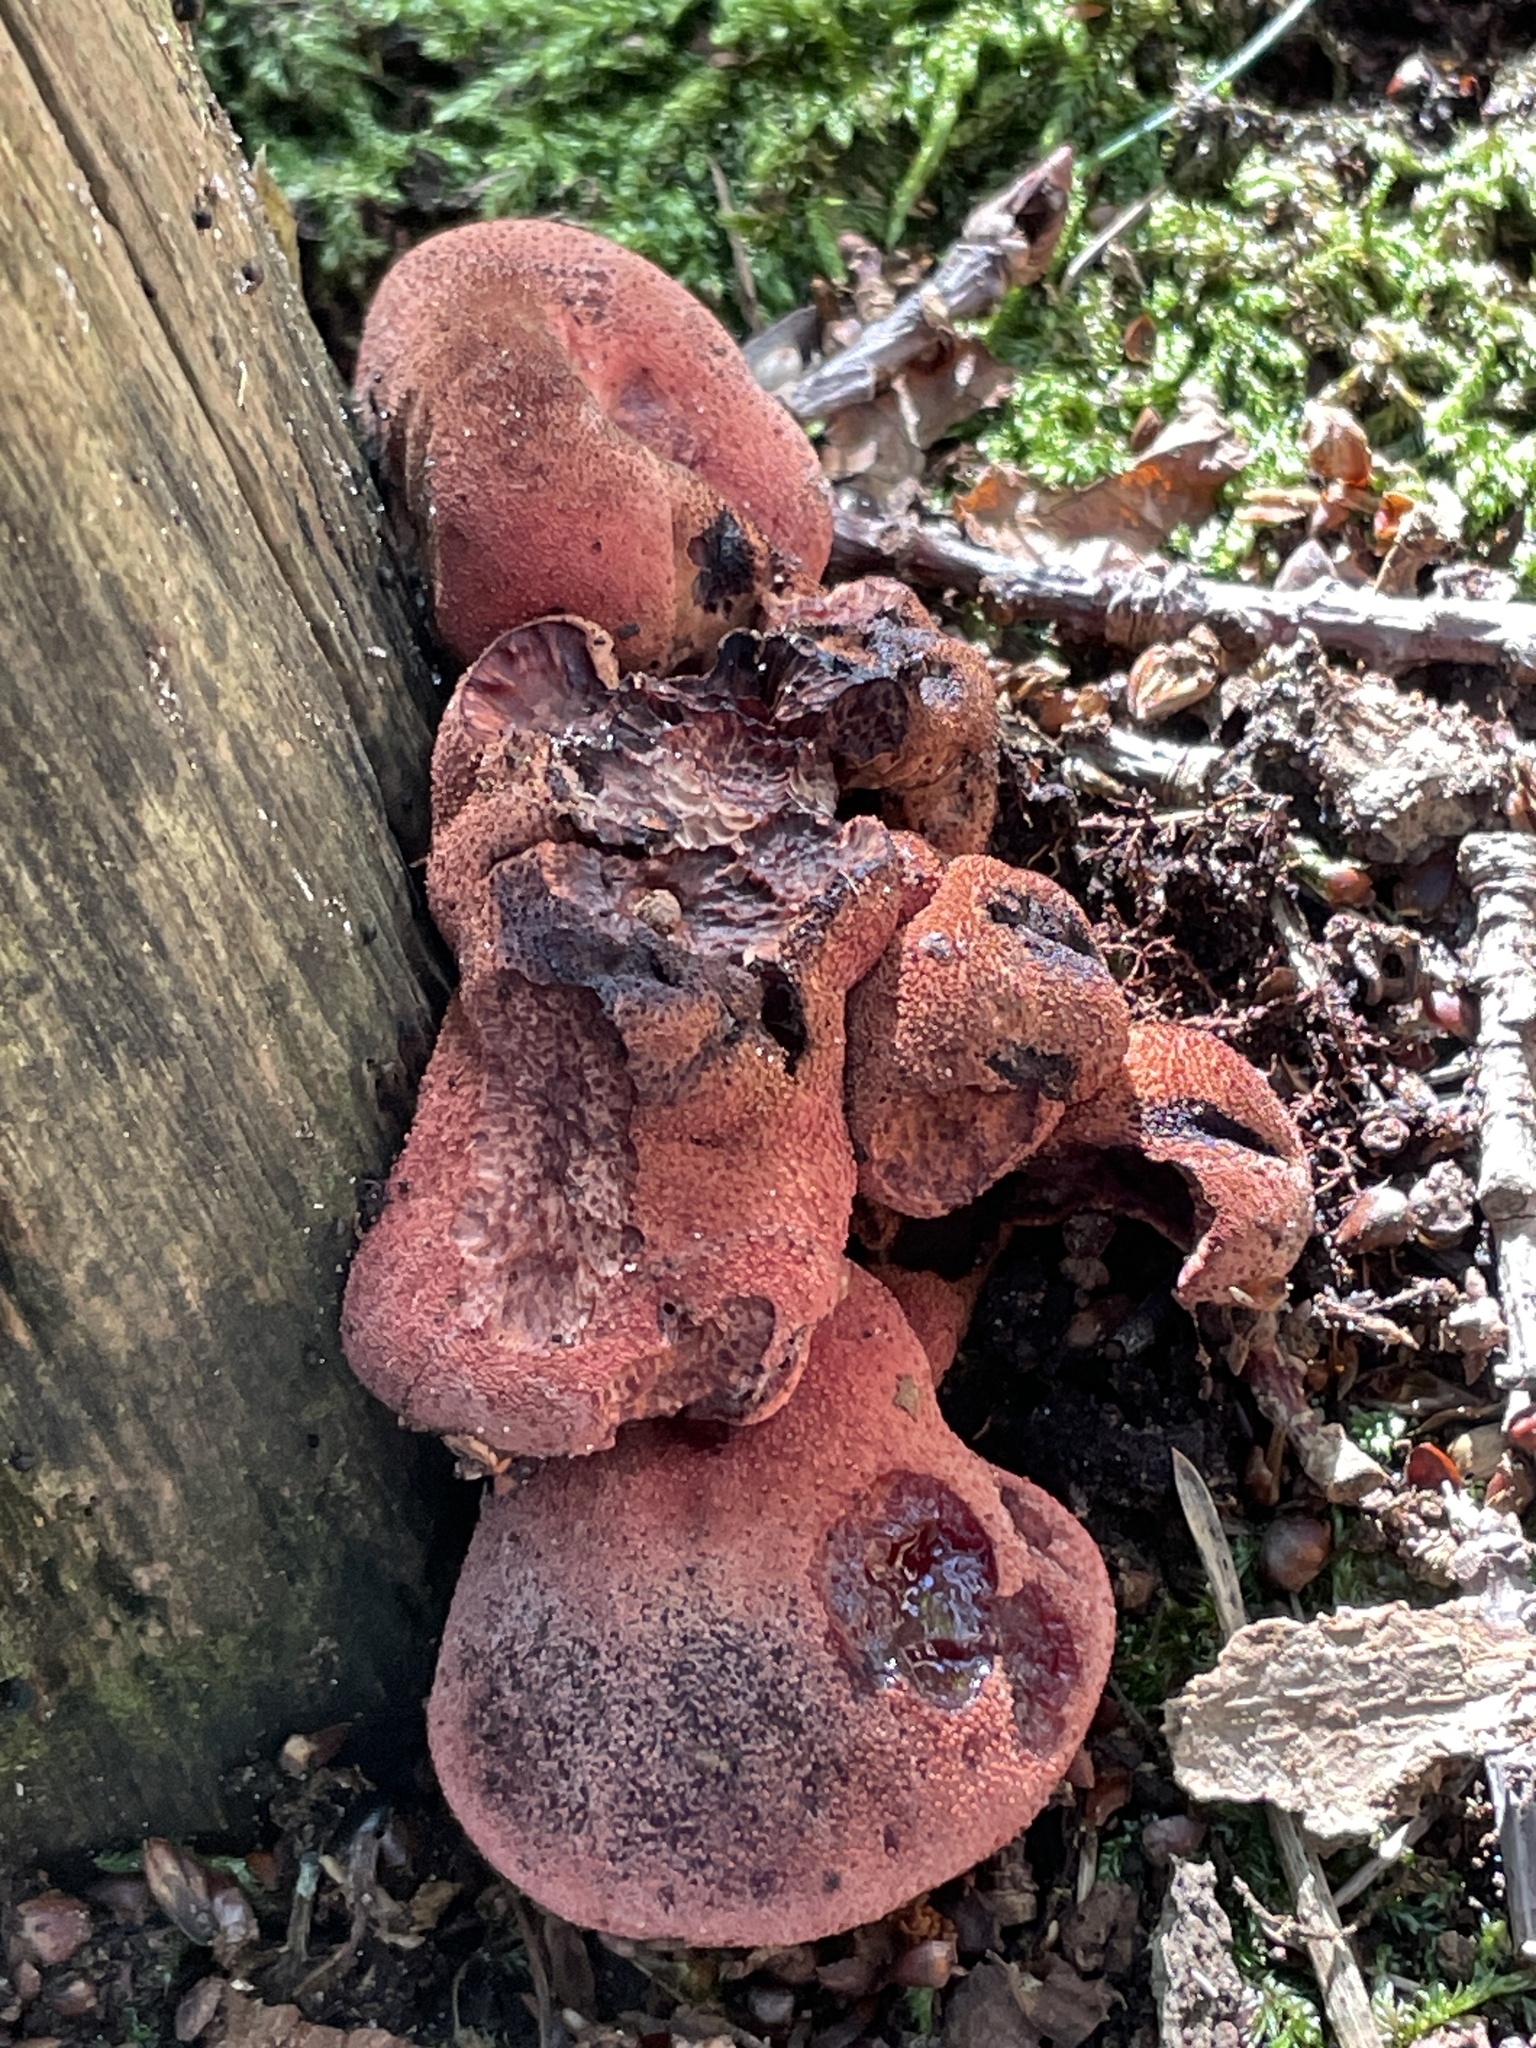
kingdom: Fungi
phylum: Basidiomycota
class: Agaricomycetes
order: Agaricales
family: Fistulinaceae
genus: Fistulina
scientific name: Fistulina hepatica
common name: Beef-steak fungus
